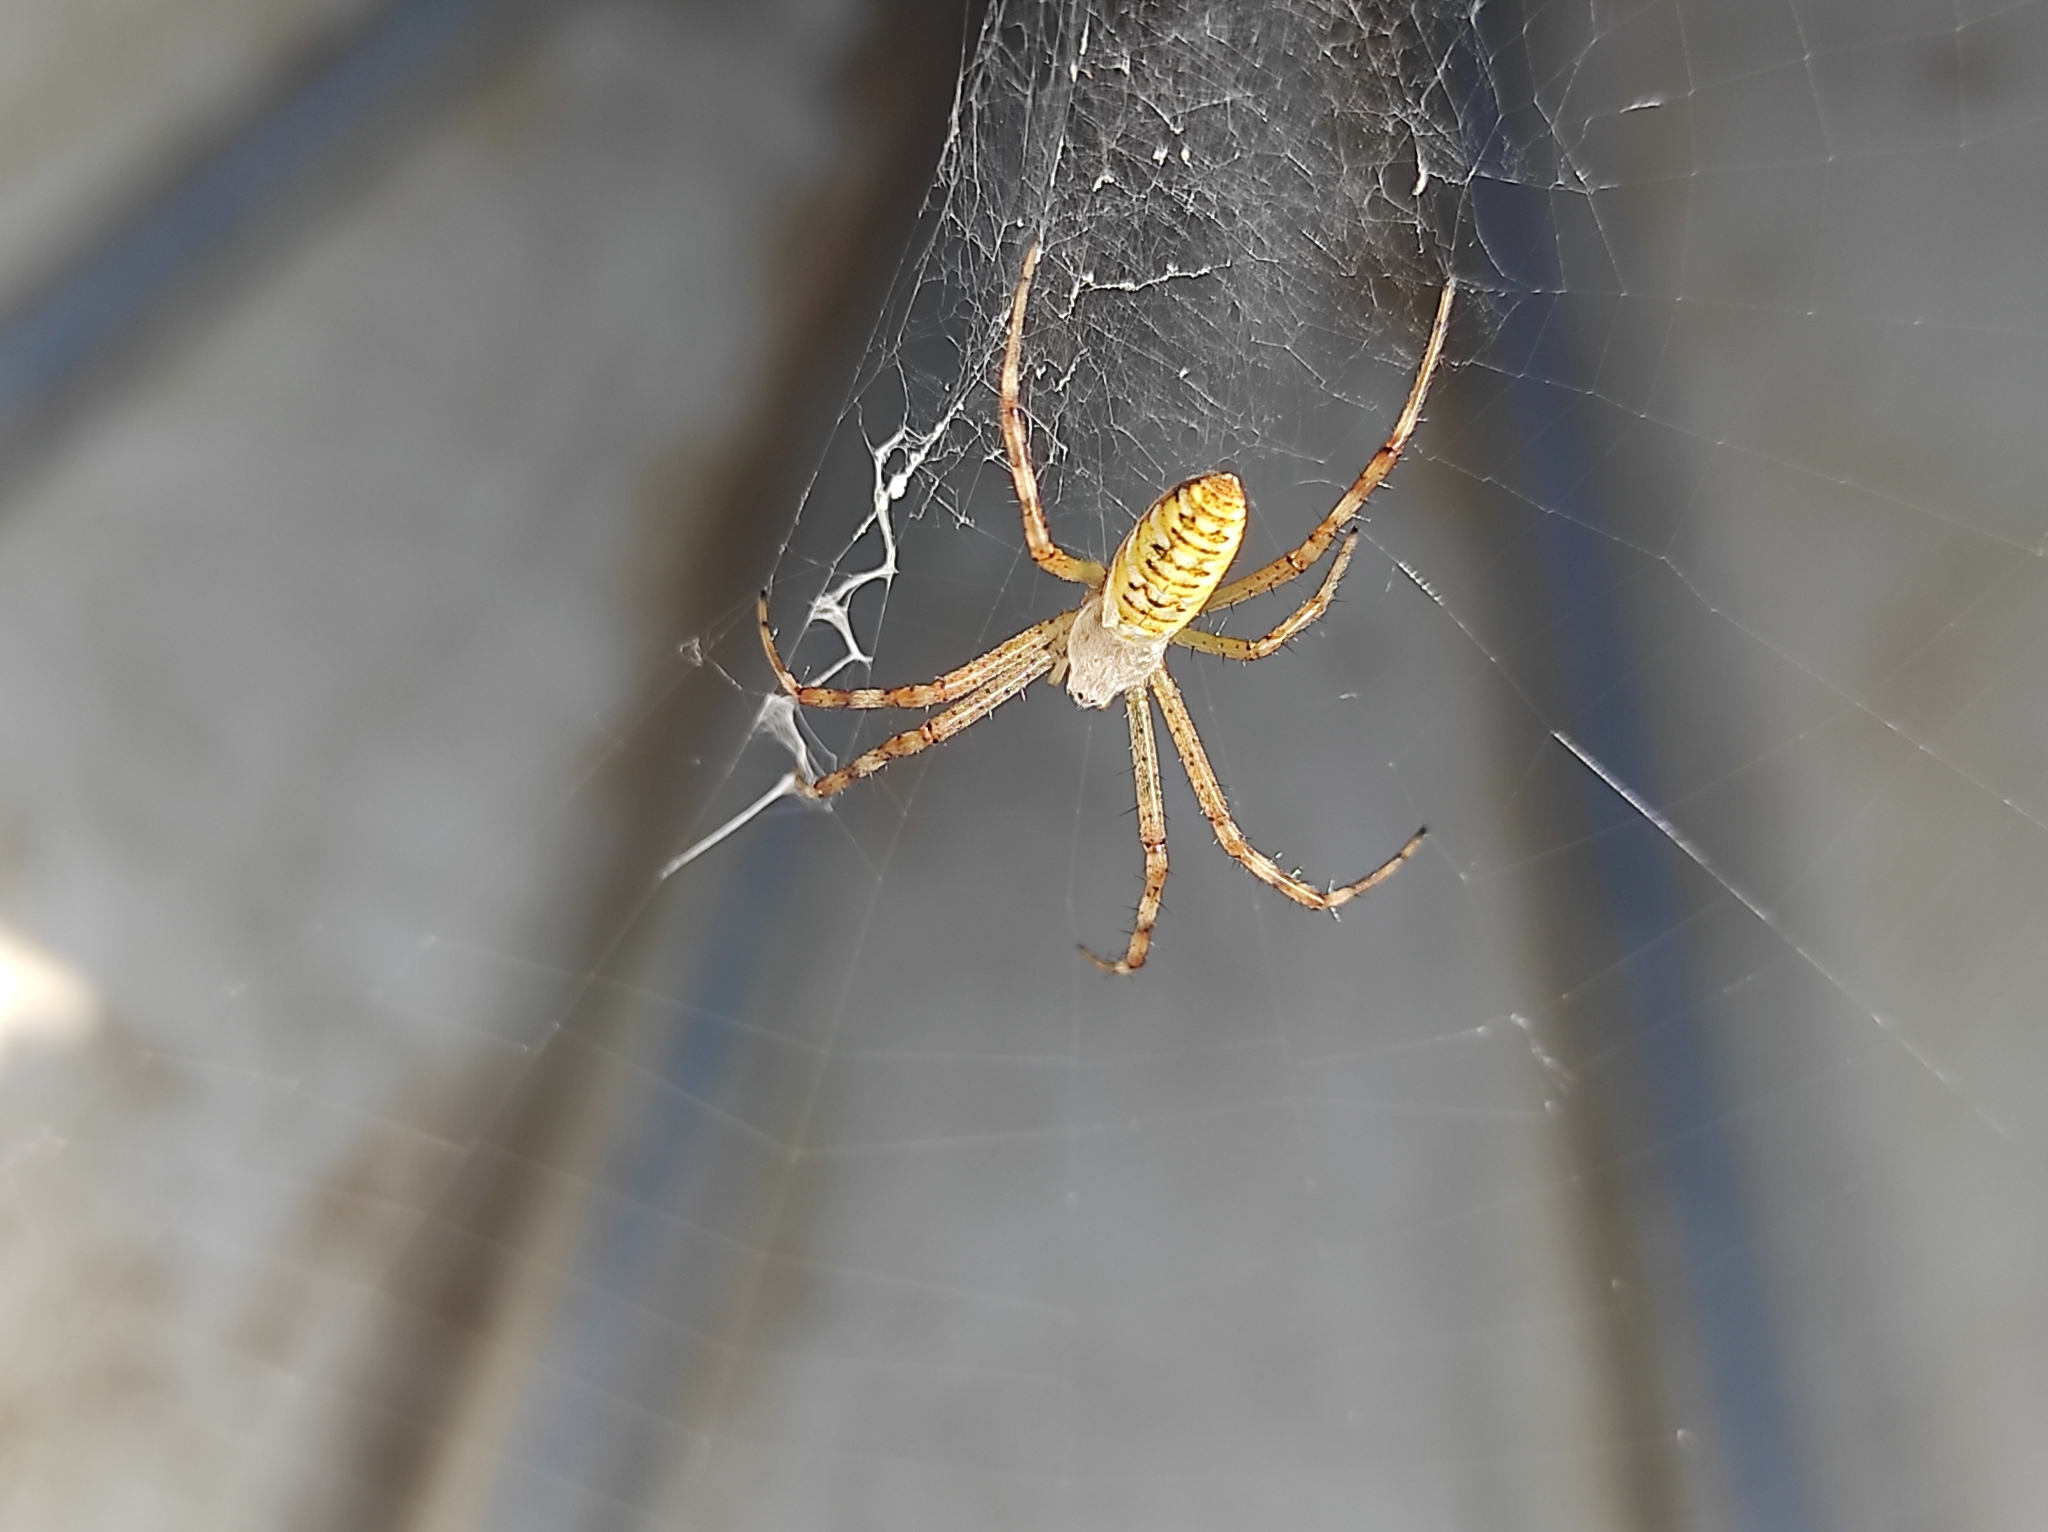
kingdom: Animalia
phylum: Arthropoda
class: Arachnida
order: Araneae
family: Araneidae
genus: Argiope
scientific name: Argiope bruennichi
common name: Wasp spider
